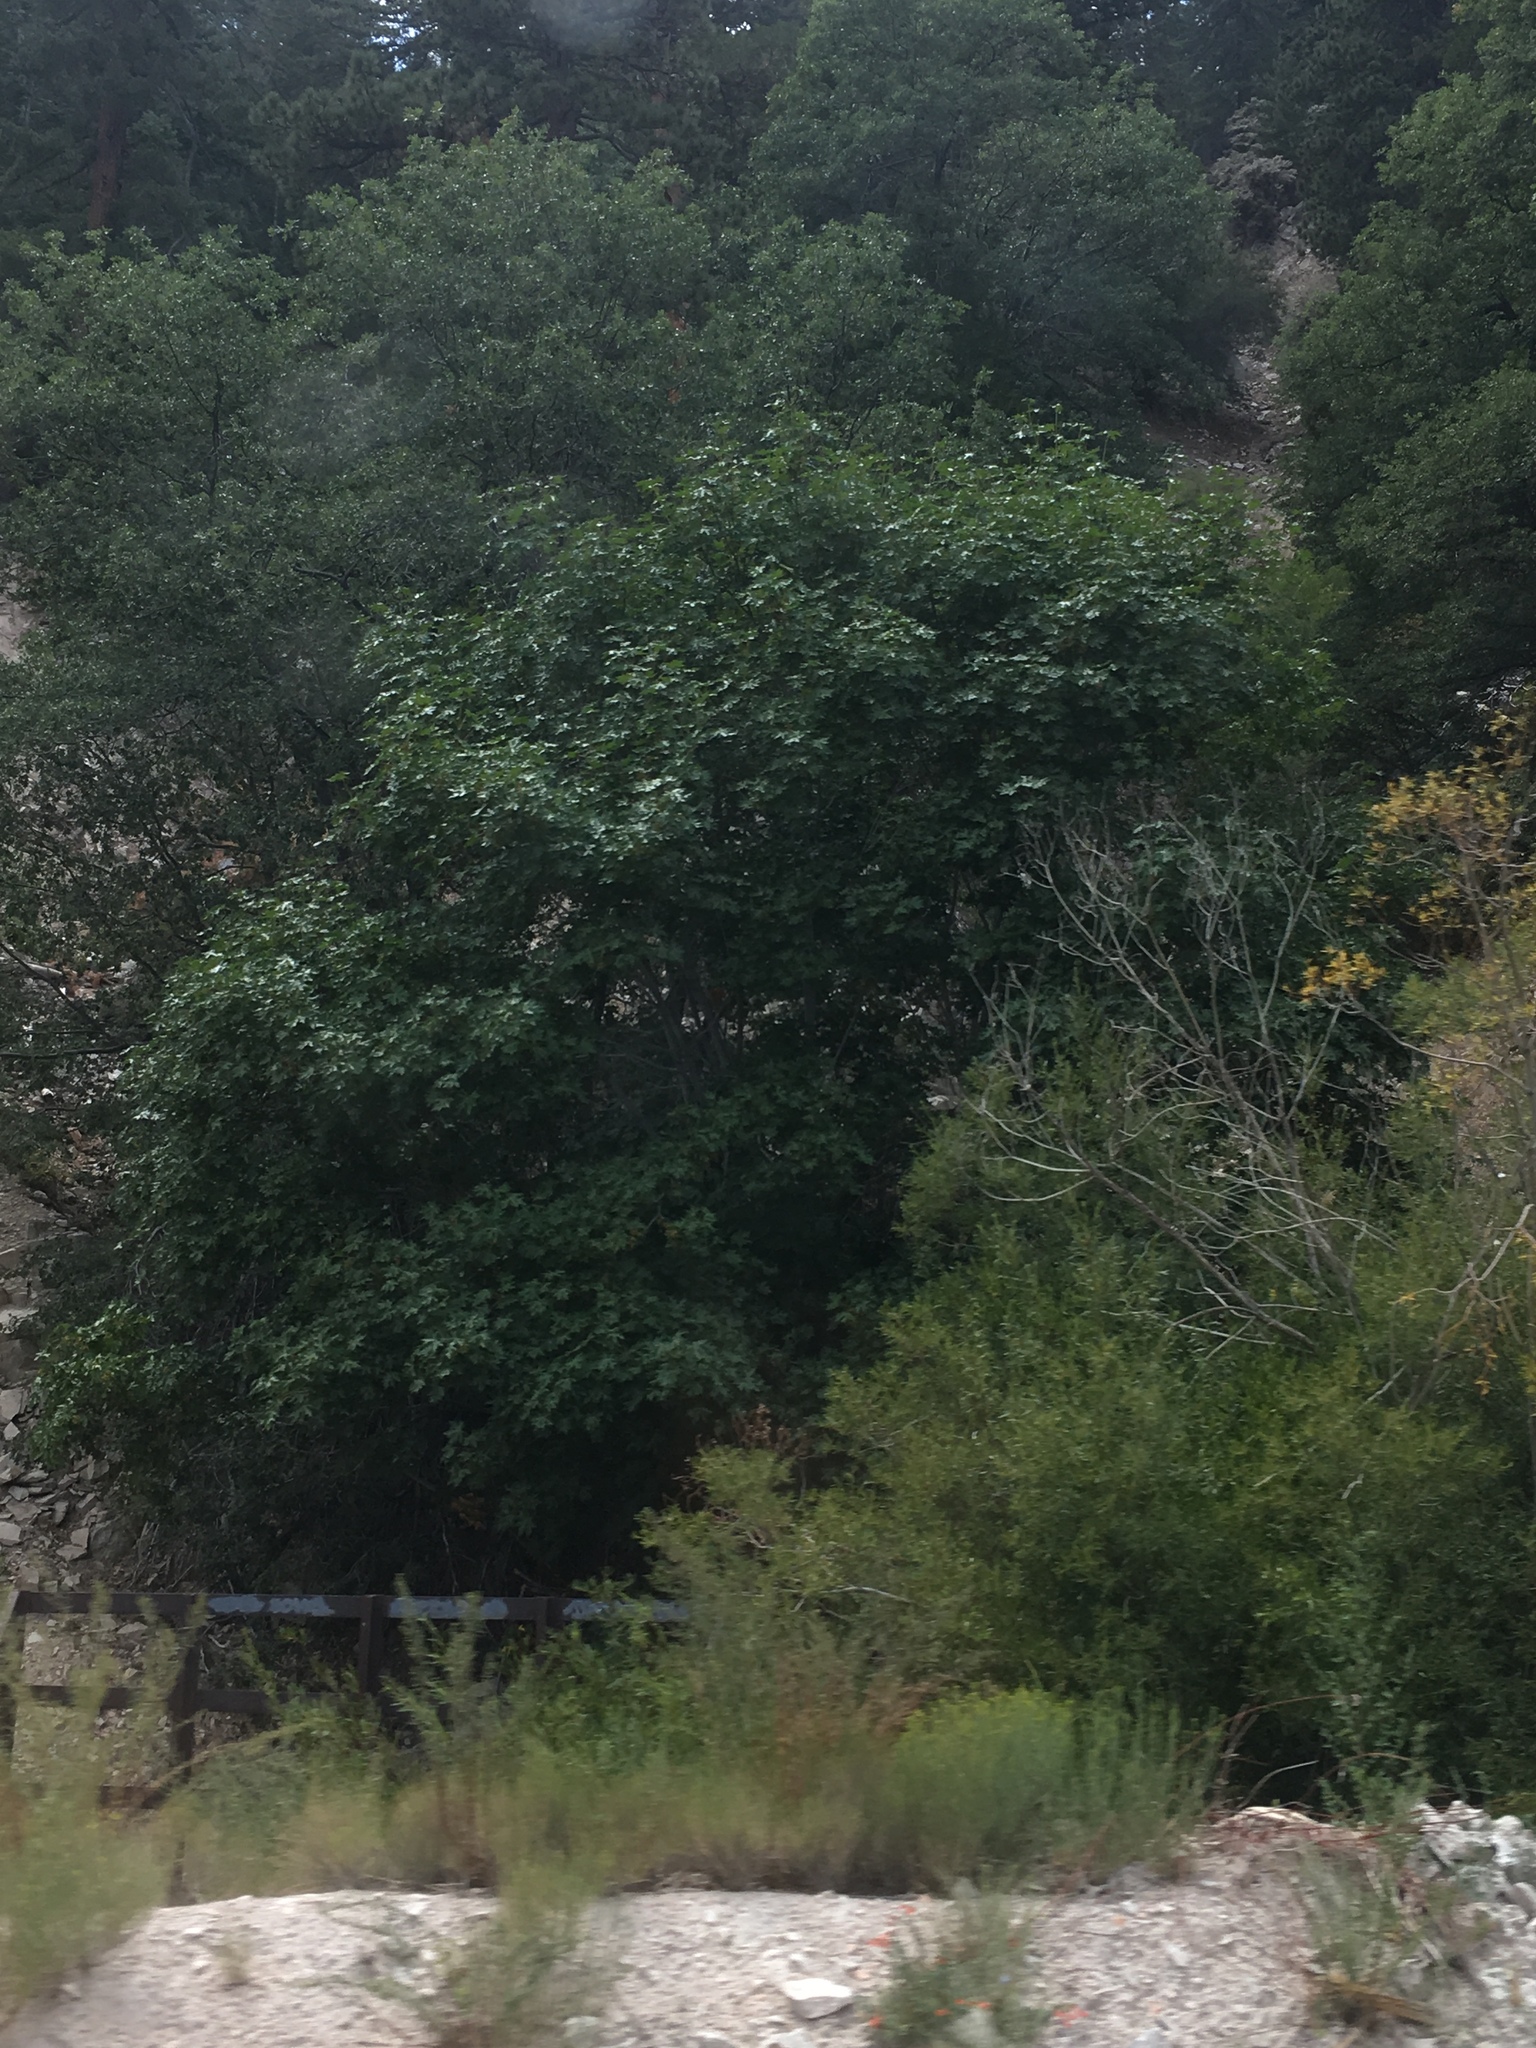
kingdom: Plantae
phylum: Tracheophyta
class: Magnoliopsida
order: Sapindales
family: Sapindaceae
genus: Acer
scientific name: Acer macrophyllum
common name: Oregon maple
